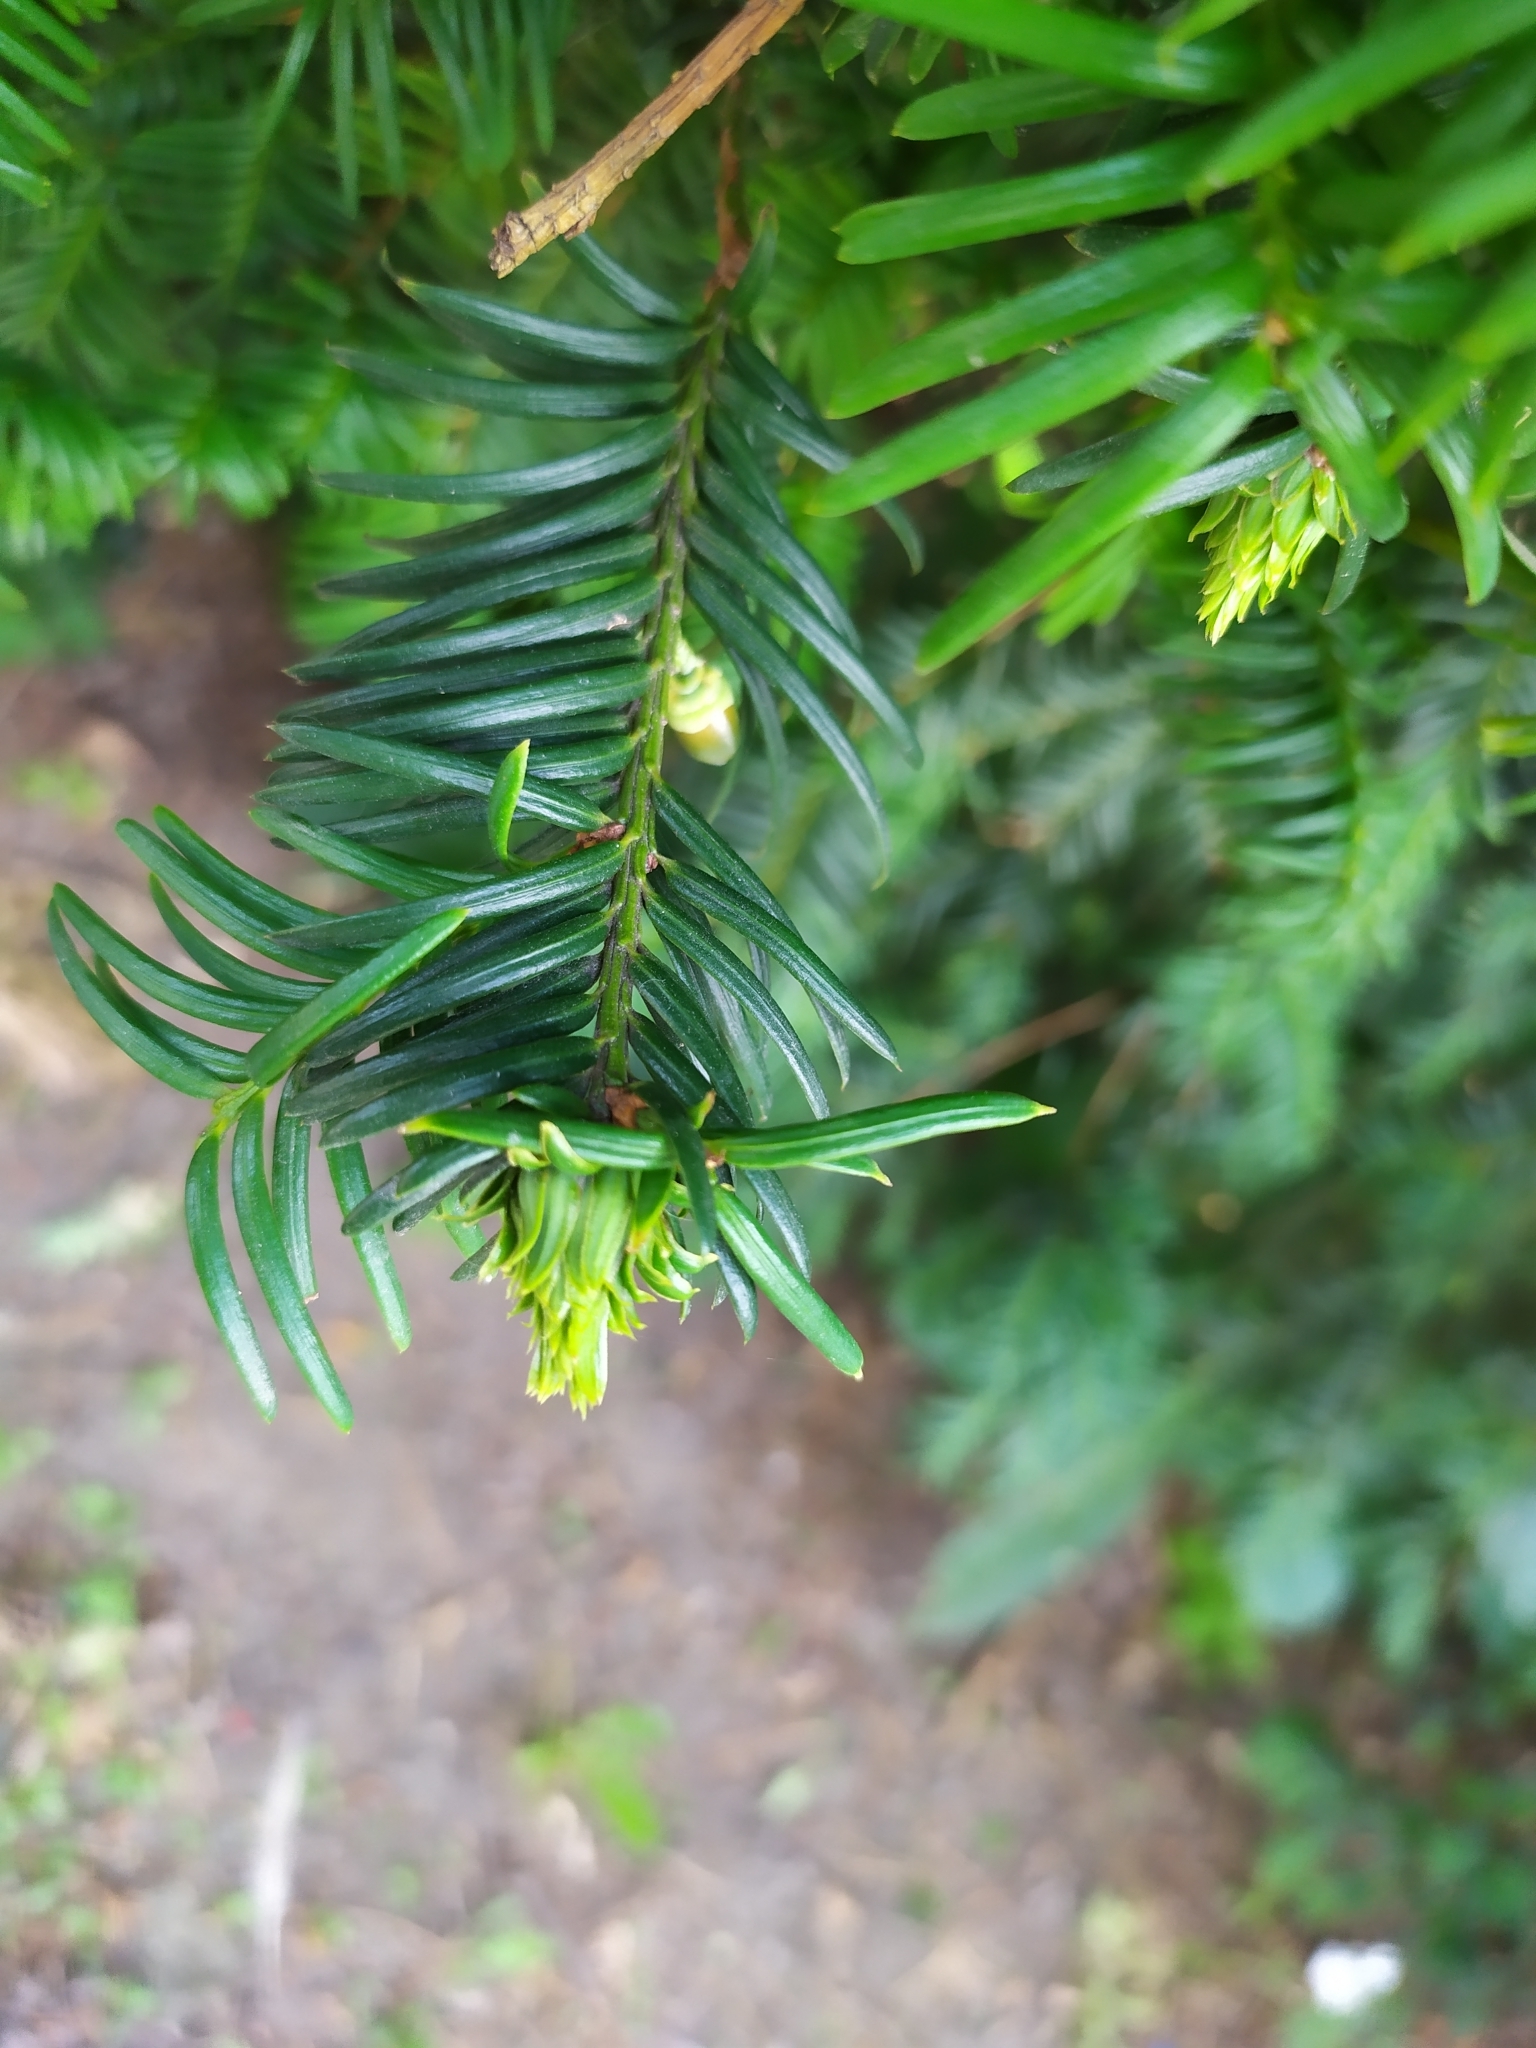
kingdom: Animalia
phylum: Arthropoda
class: Insecta
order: Diptera
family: Cecidomyiidae
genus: Taxomyia
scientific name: Taxomyia taxi
